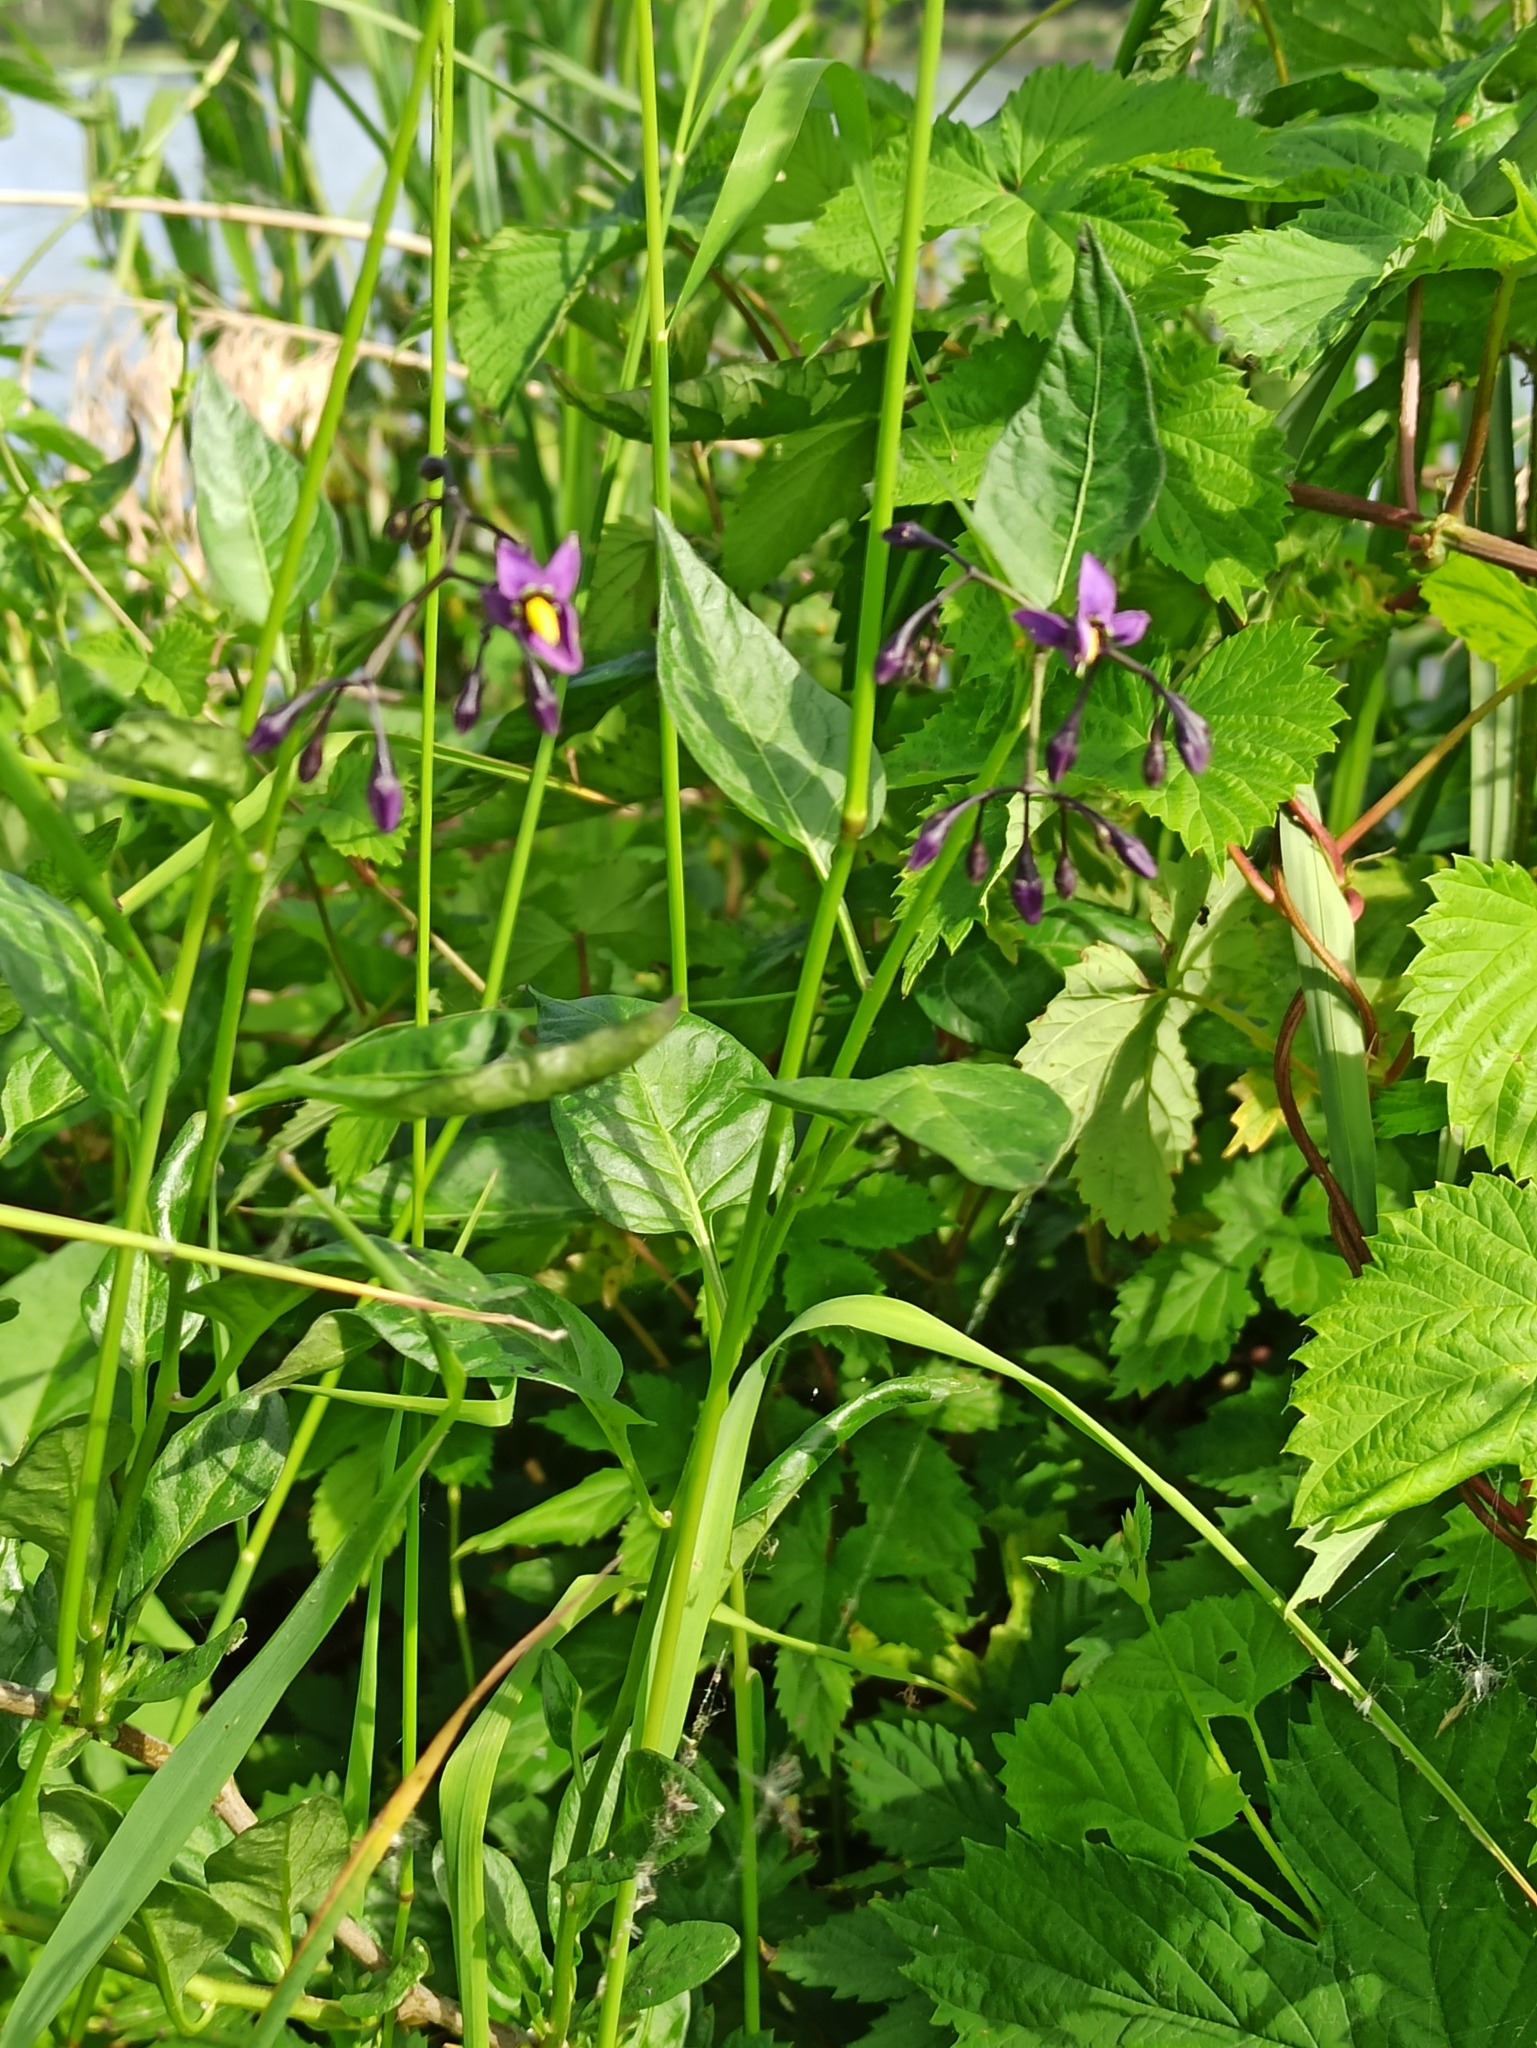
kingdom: Plantae
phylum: Tracheophyta
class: Magnoliopsida
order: Fabales
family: Fabaceae
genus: Vicia
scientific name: Vicia sepium
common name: Bush vetch
